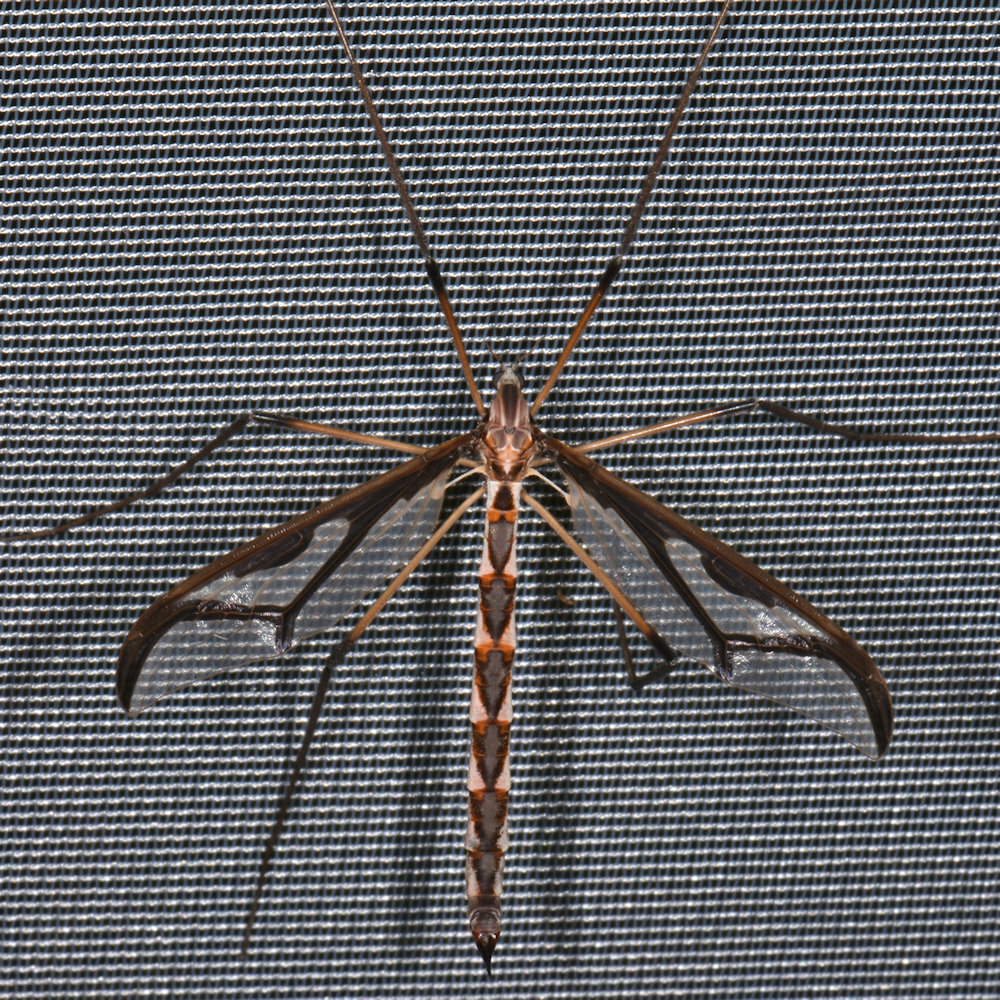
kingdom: Animalia
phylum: Arthropoda
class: Insecta
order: Diptera
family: Pediciidae
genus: Pedicia
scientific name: Pedicia albivitta
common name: Giant eastern crane fly
